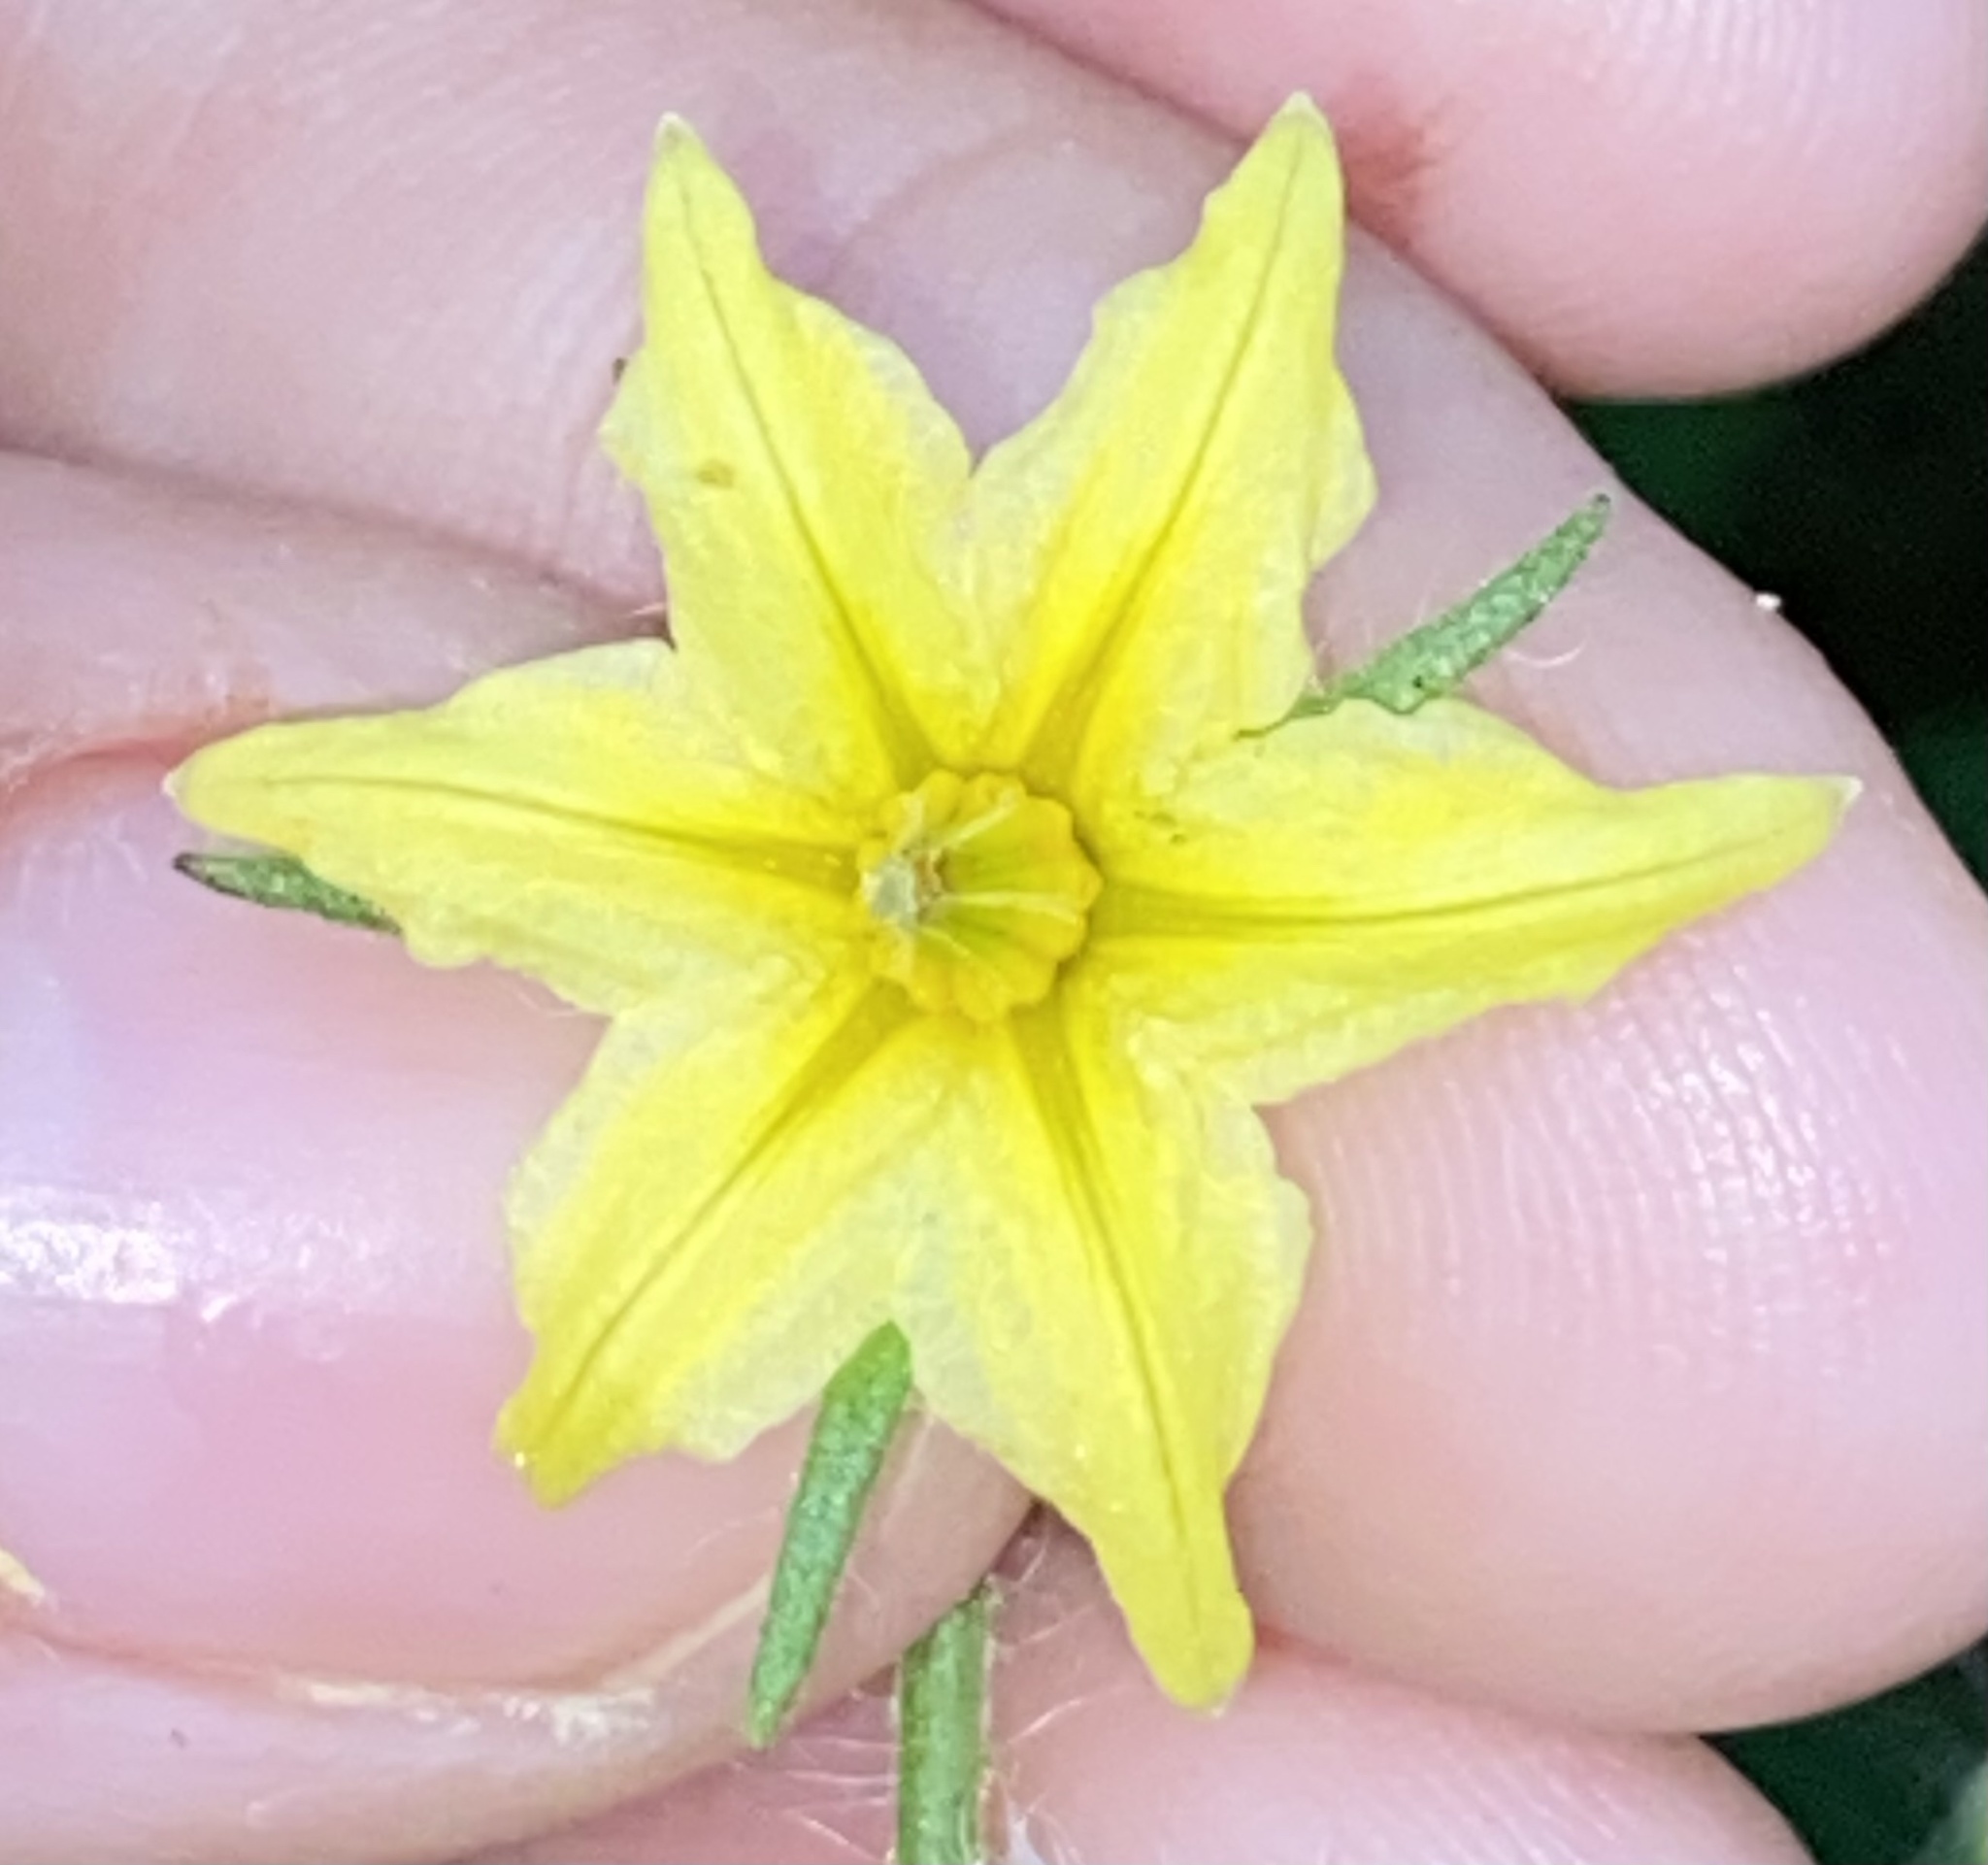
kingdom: Plantae
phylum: Tracheophyta
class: Magnoliopsida
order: Solanales
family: Solanaceae
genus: Solanum
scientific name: Solanum lycopersicum
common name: Garden tomato
